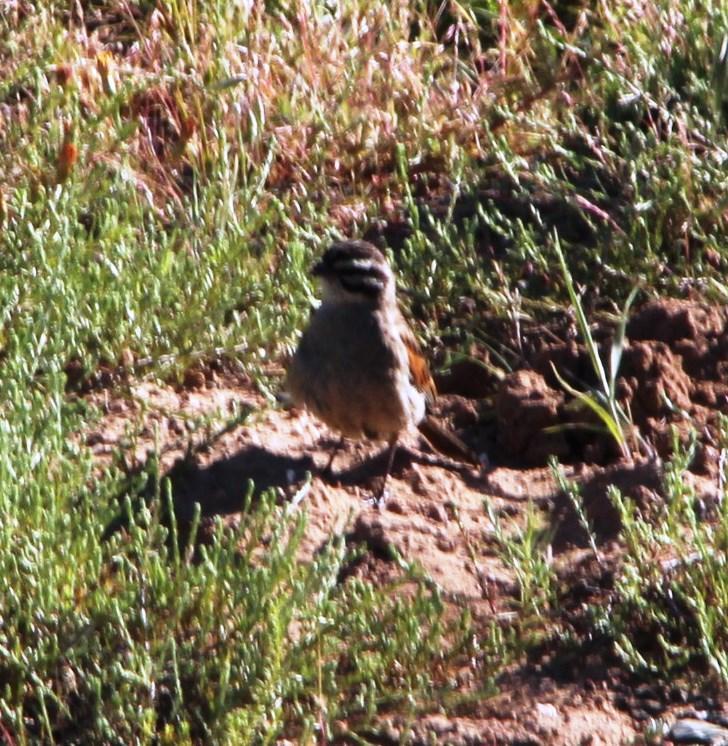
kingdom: Animalia
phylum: Chordata
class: Aves
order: Passeriformes
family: Emberizidae
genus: Emberiza
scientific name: Emberiza capensis
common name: Cape bunting
